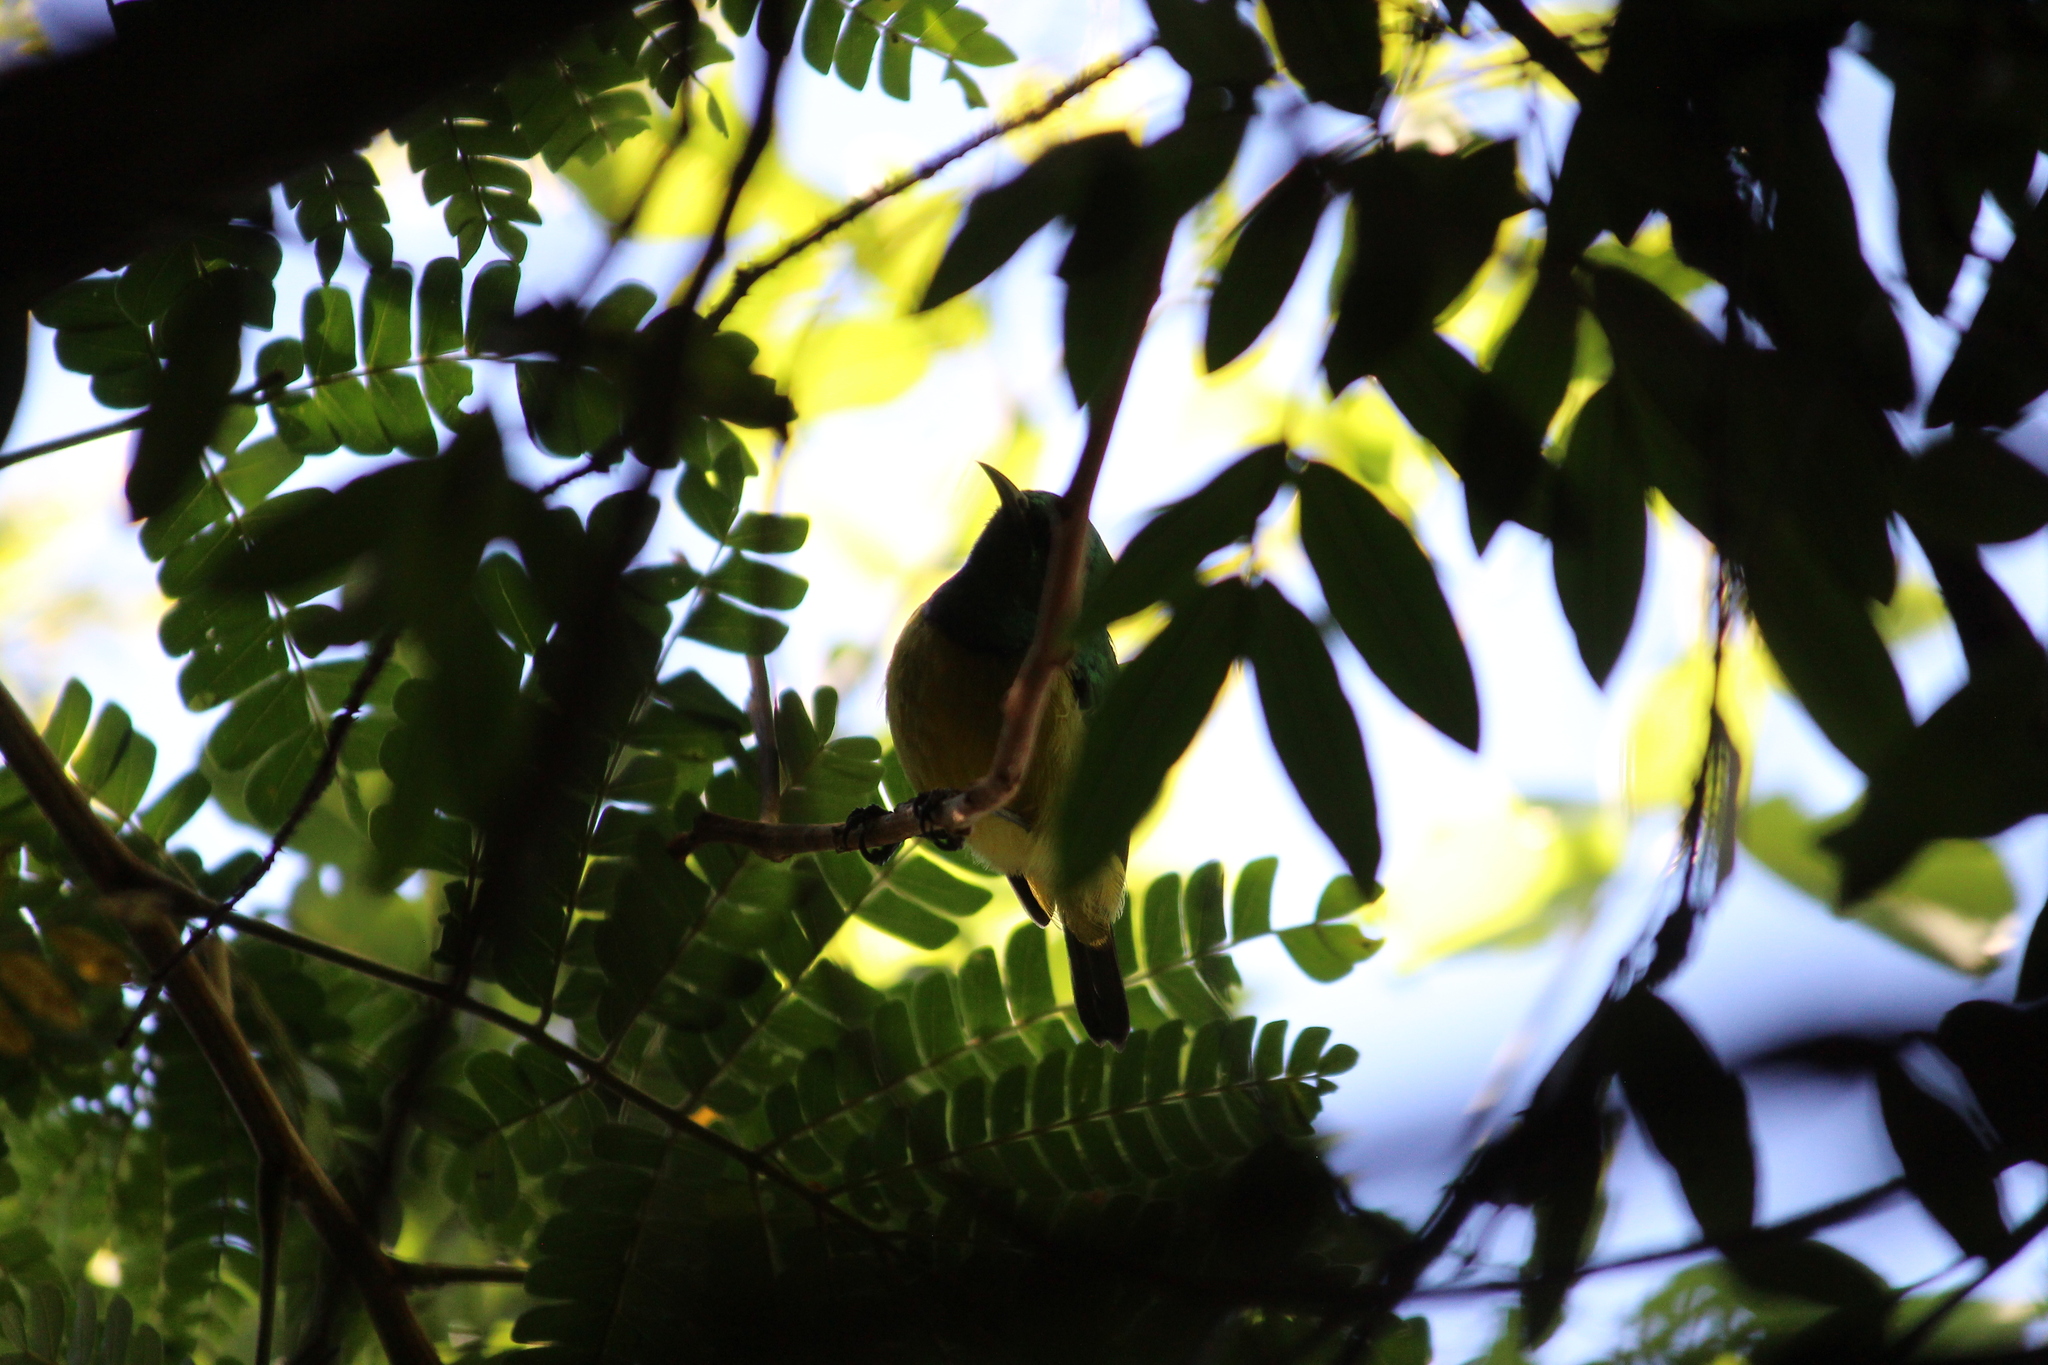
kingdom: Animalia
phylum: Chordata
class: Aves
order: Passeriformes
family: Nectariniidae
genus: Hedydipna
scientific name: Hedydipna collaris
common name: Collared sunbird
